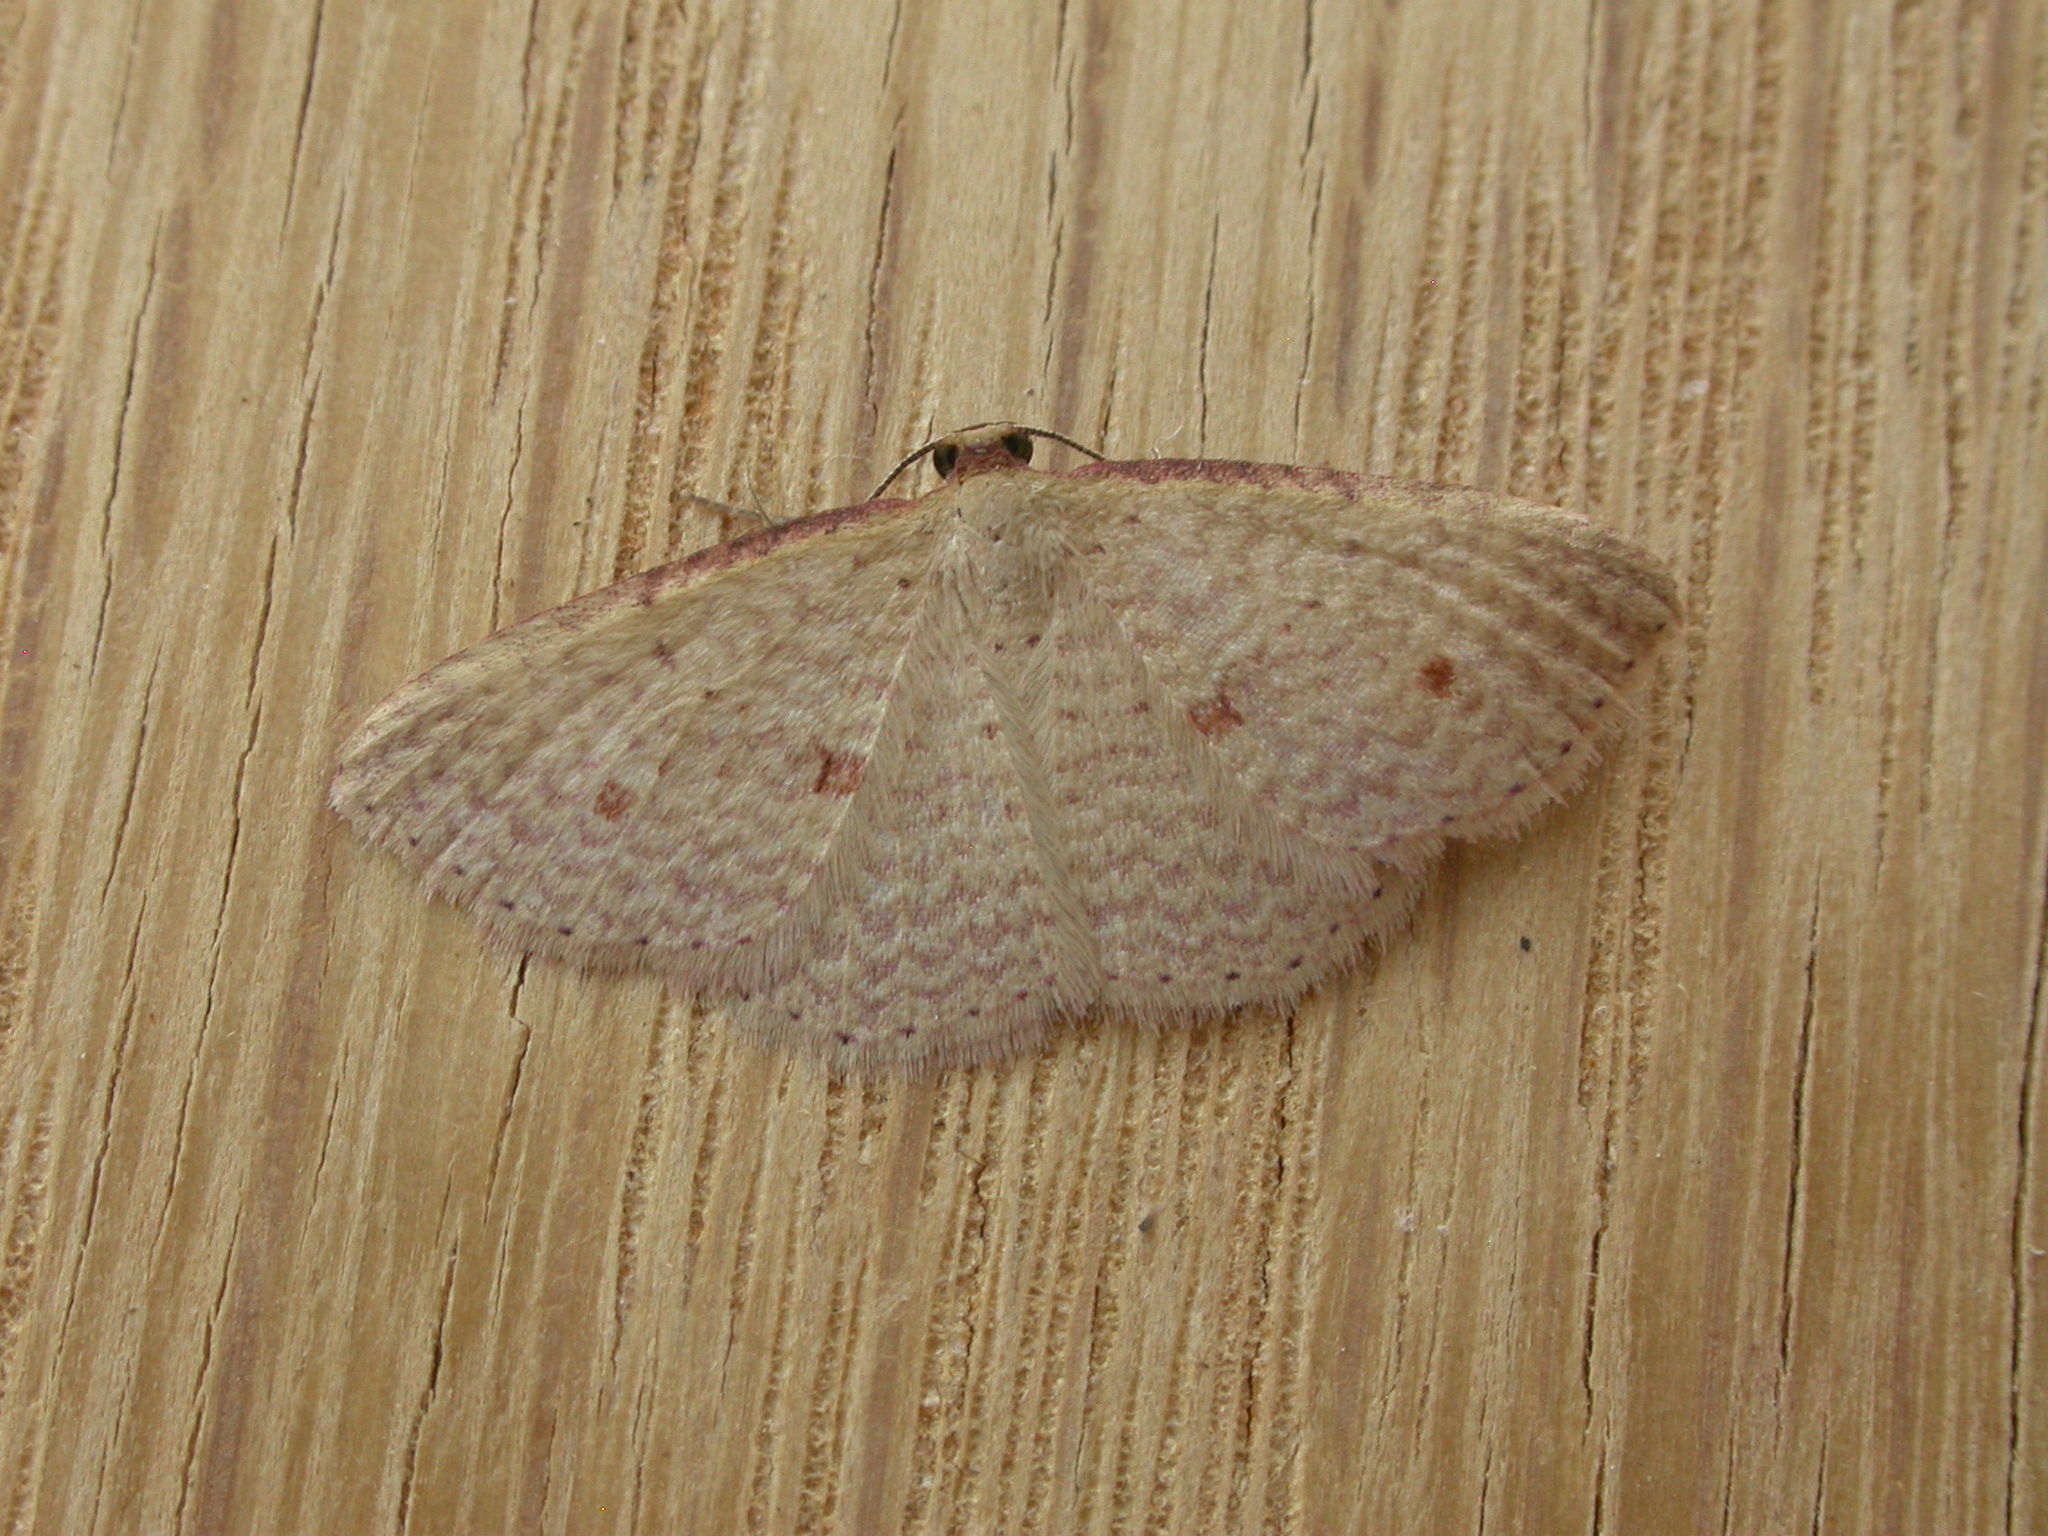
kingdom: Animalia
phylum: Arthropoda
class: Insecta
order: Lepidoptera
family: Geometridae
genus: Epicyme
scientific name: Epicyme rubropunctaria
